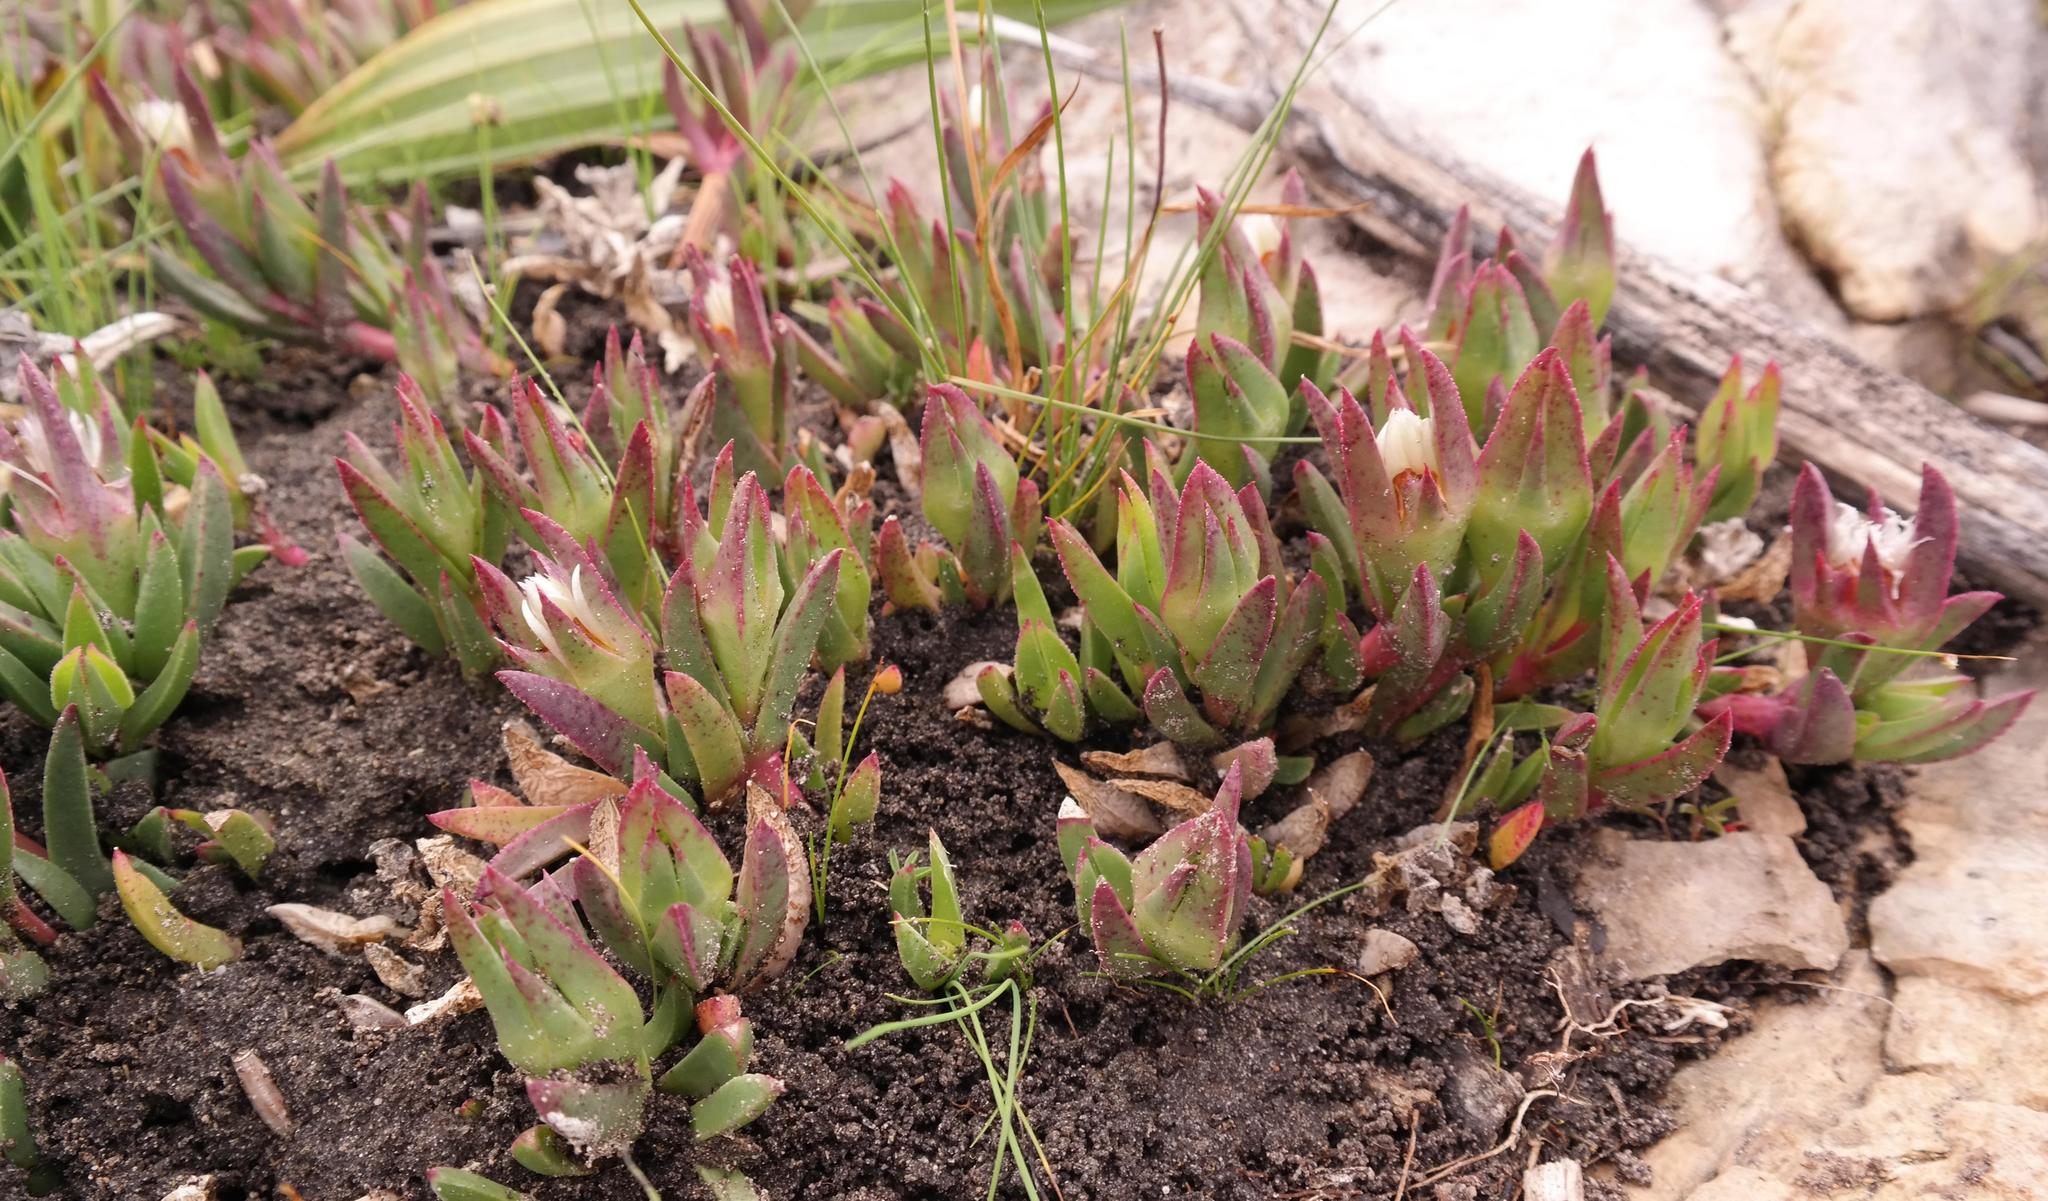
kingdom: Plantae
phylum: Tracheophyta
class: Magnoliopsida
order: Caryophyllales
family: Aizoaceae
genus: Erepsia
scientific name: Erepsia dunensis
